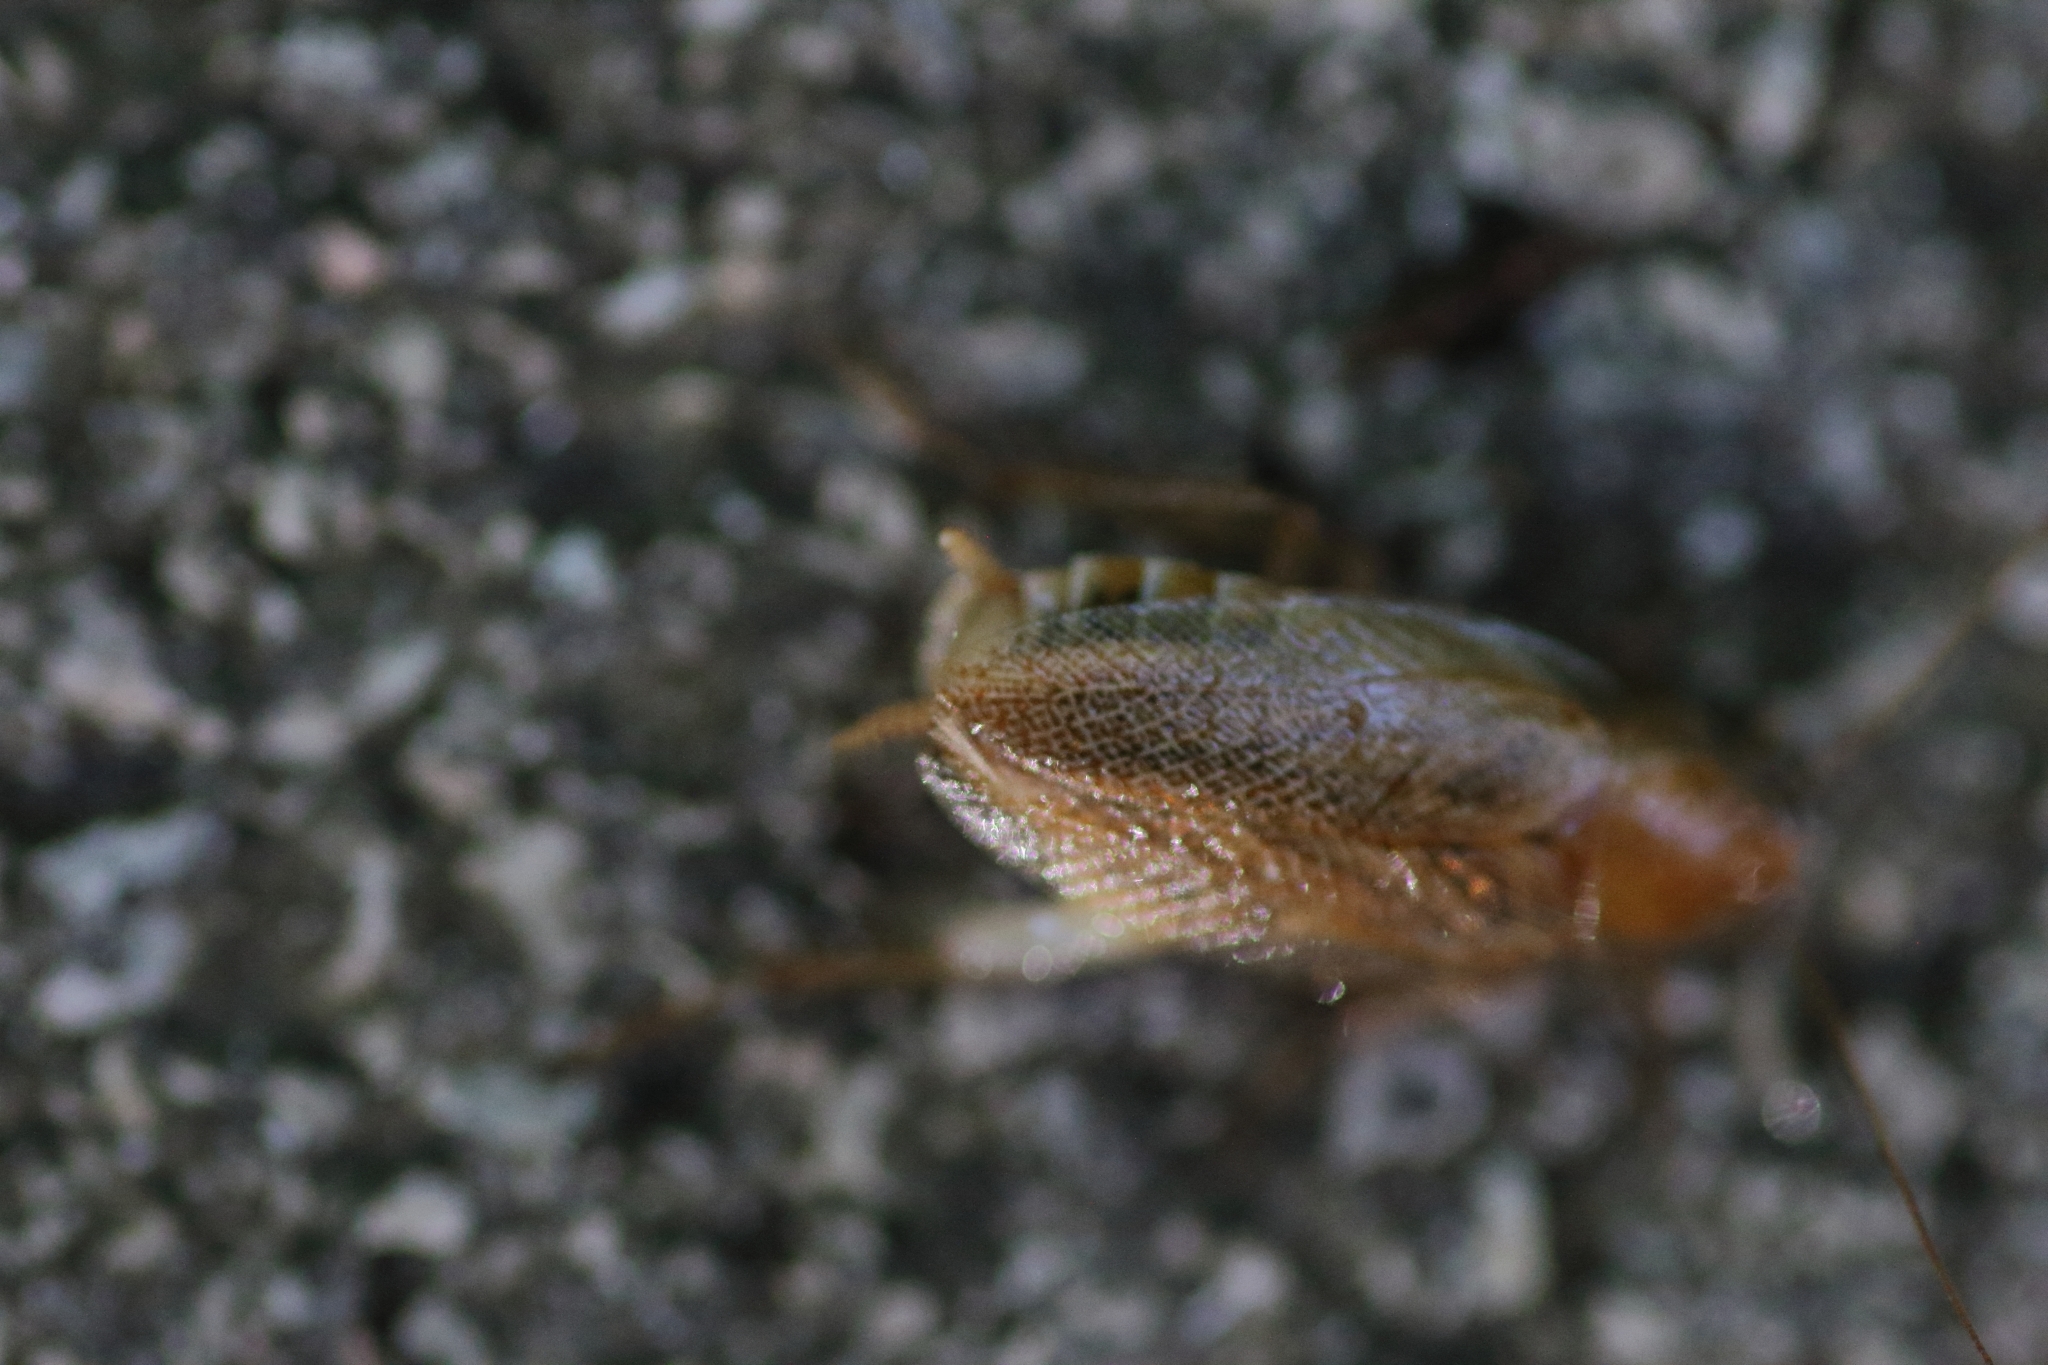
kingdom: Animalia
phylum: Arthropoda
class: Insecta
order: Blattodea
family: Ectobiidae
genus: Ectobius
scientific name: Ectobius vittiventris
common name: Garden cockroach
